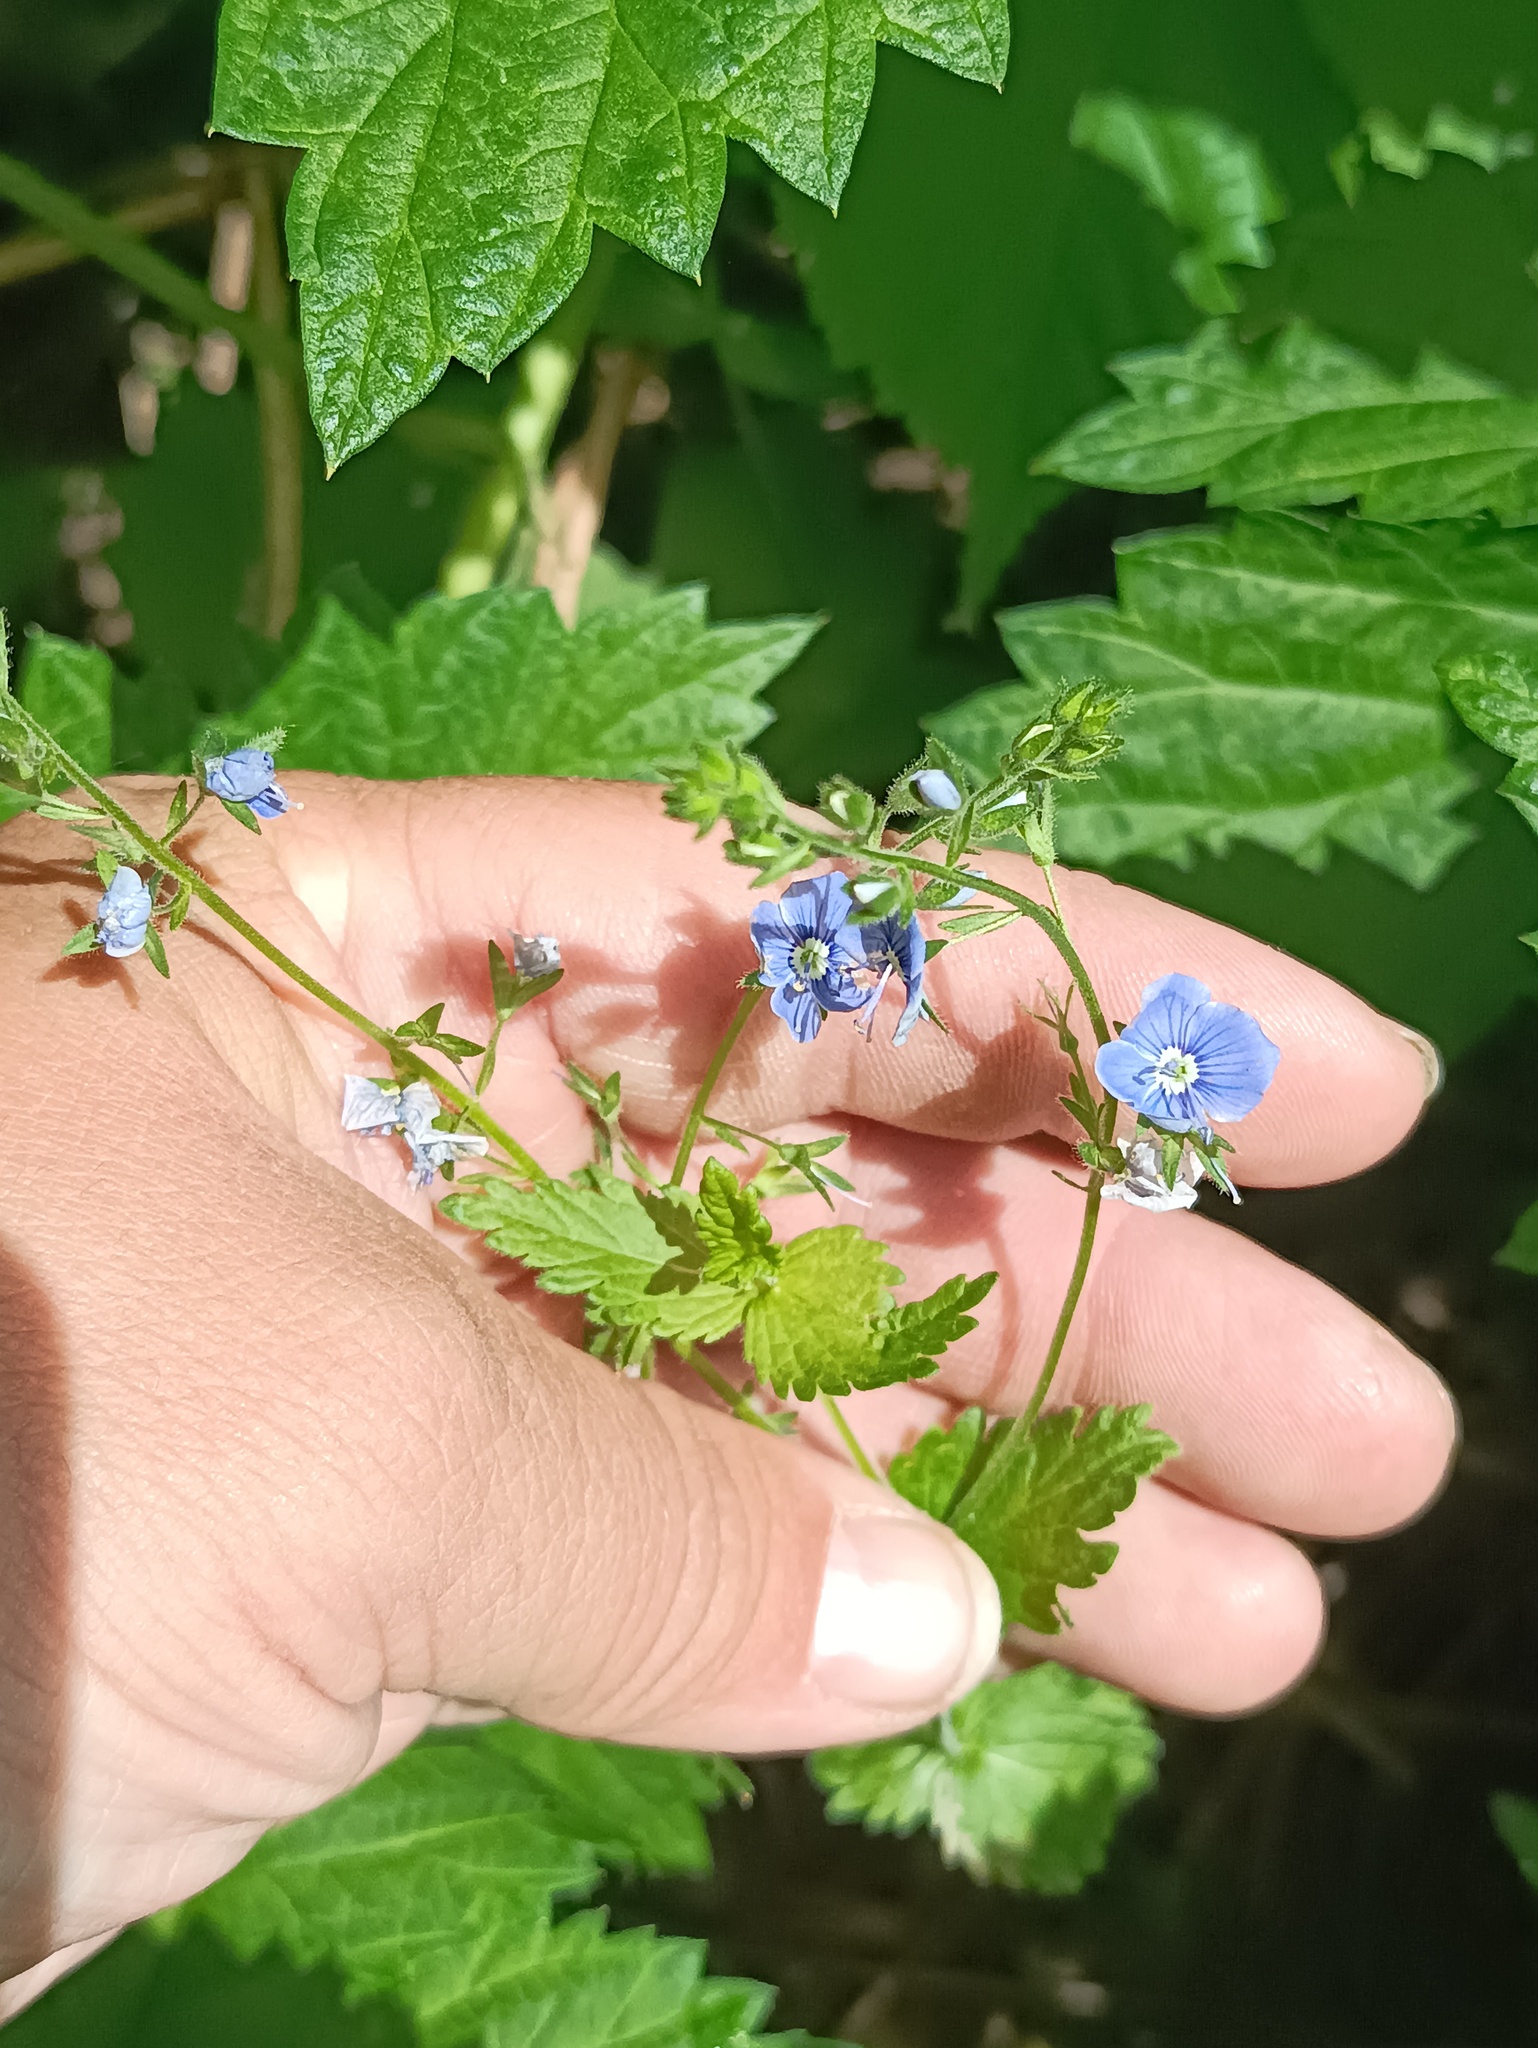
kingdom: Plantae
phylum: Tracheophyta
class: Magnoliopsida
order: Lamiales
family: Plantaginaceae
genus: Veronica
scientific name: Veronica chamaedrys
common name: Germander speedwell
